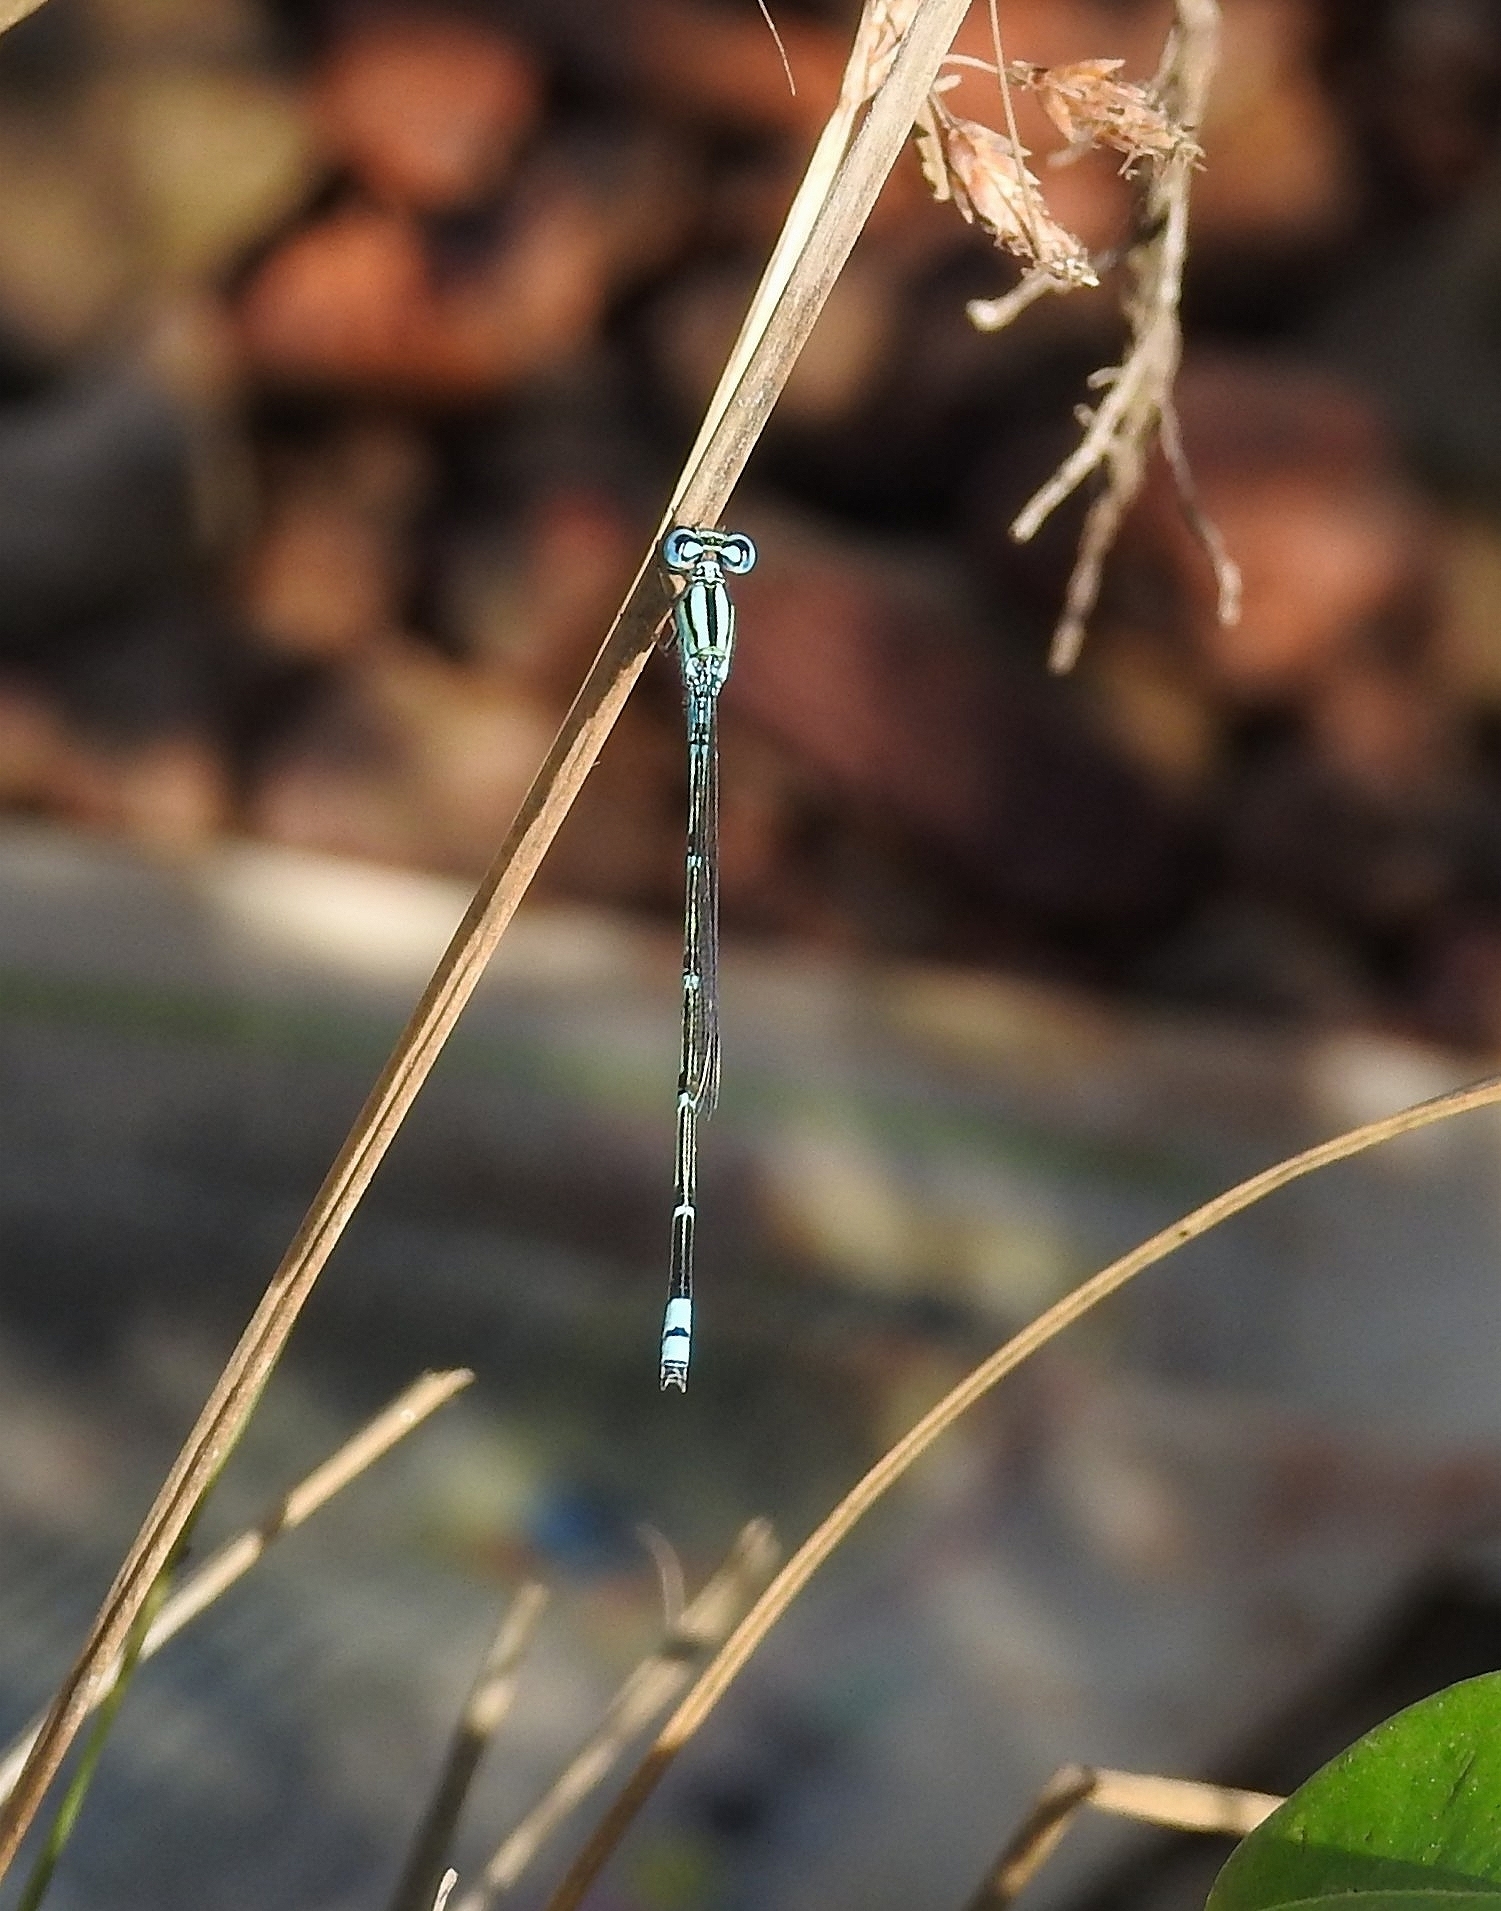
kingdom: Animalia
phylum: Arthropoda
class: Insecta
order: Odonata
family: Coenagrionidae
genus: Pseudagrion
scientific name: Pseudagrion microcephalum
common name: Blue riverdamsel
